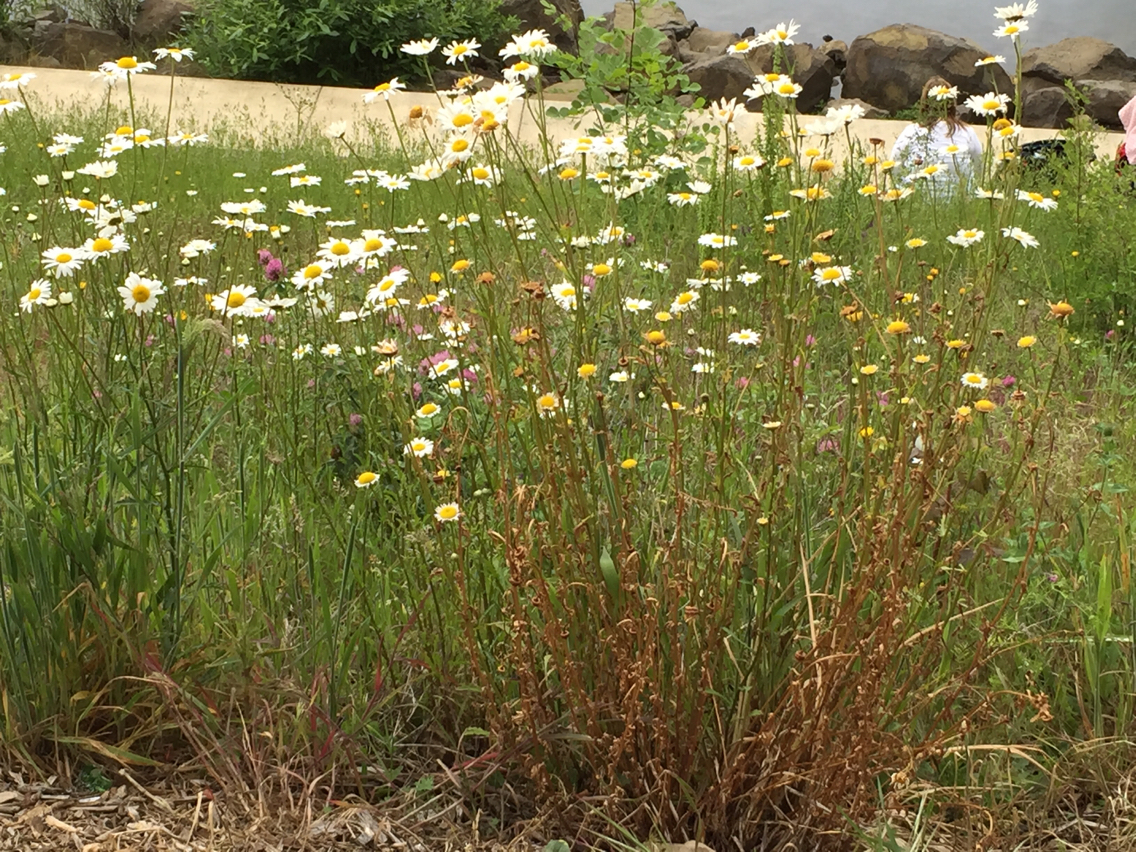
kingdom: Plantae
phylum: Tracheophyta
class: Magnoliopsida
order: Asterales
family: Asteraceae
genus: Leucanthemum
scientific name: Leucanthemum vulgare
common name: Oxeye daisy
